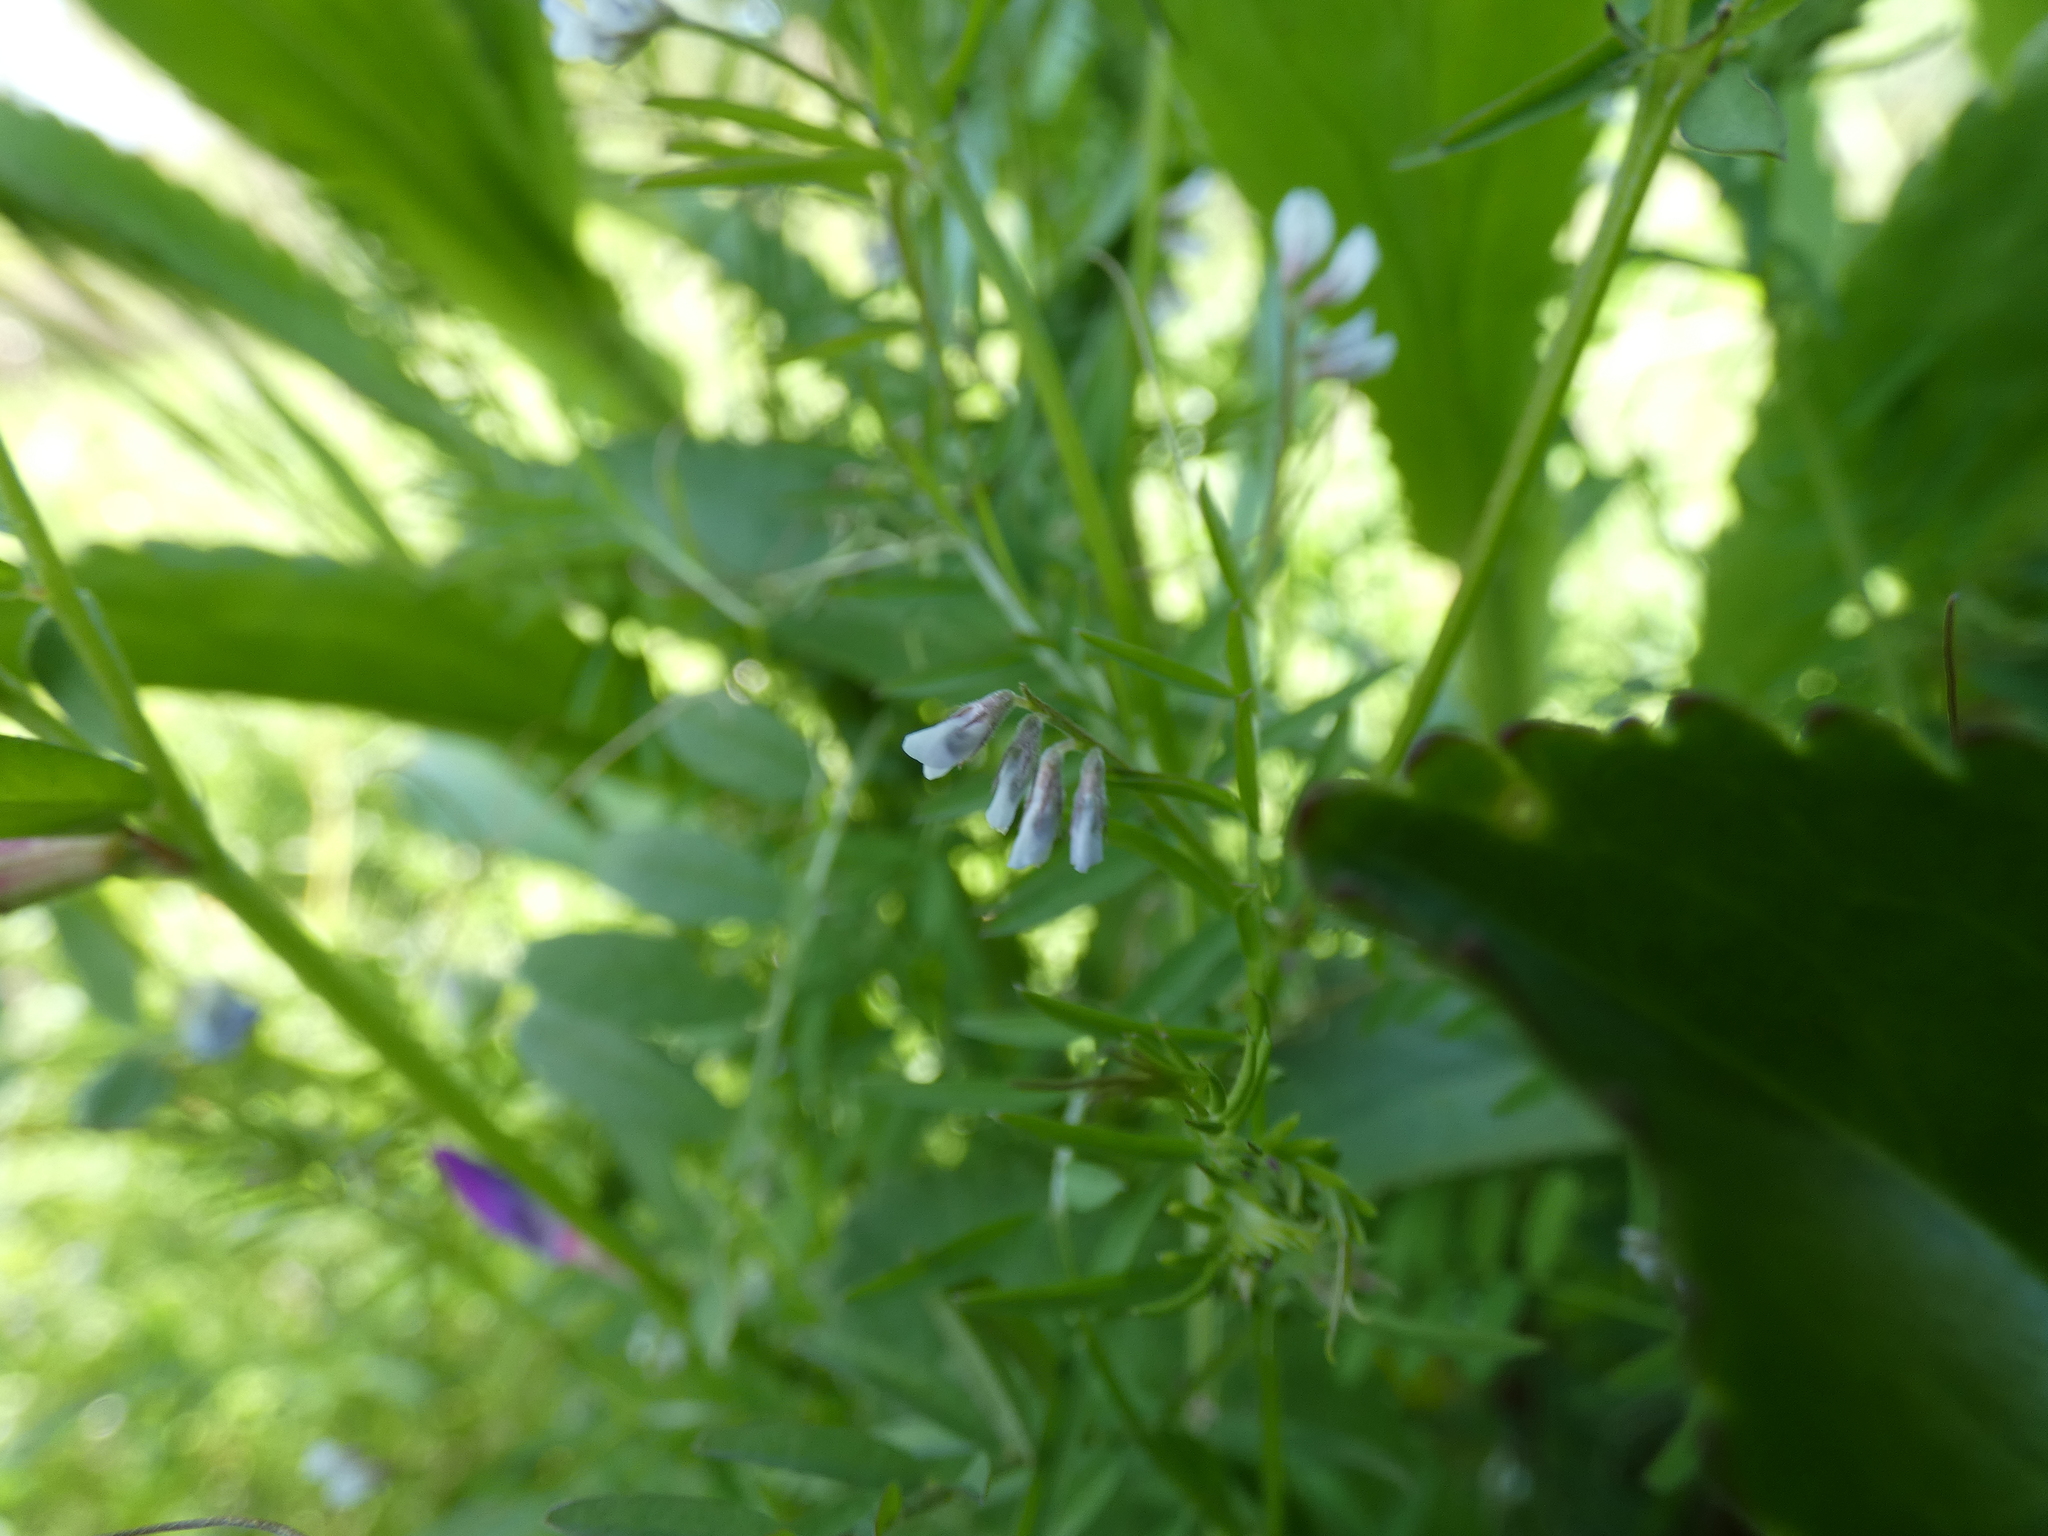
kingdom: Plantae
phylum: Tracheophyta
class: Magnoliopsida
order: Fabales
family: Fabaceae
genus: Vicia
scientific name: Vicia hirsuta
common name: Tiny vetch
